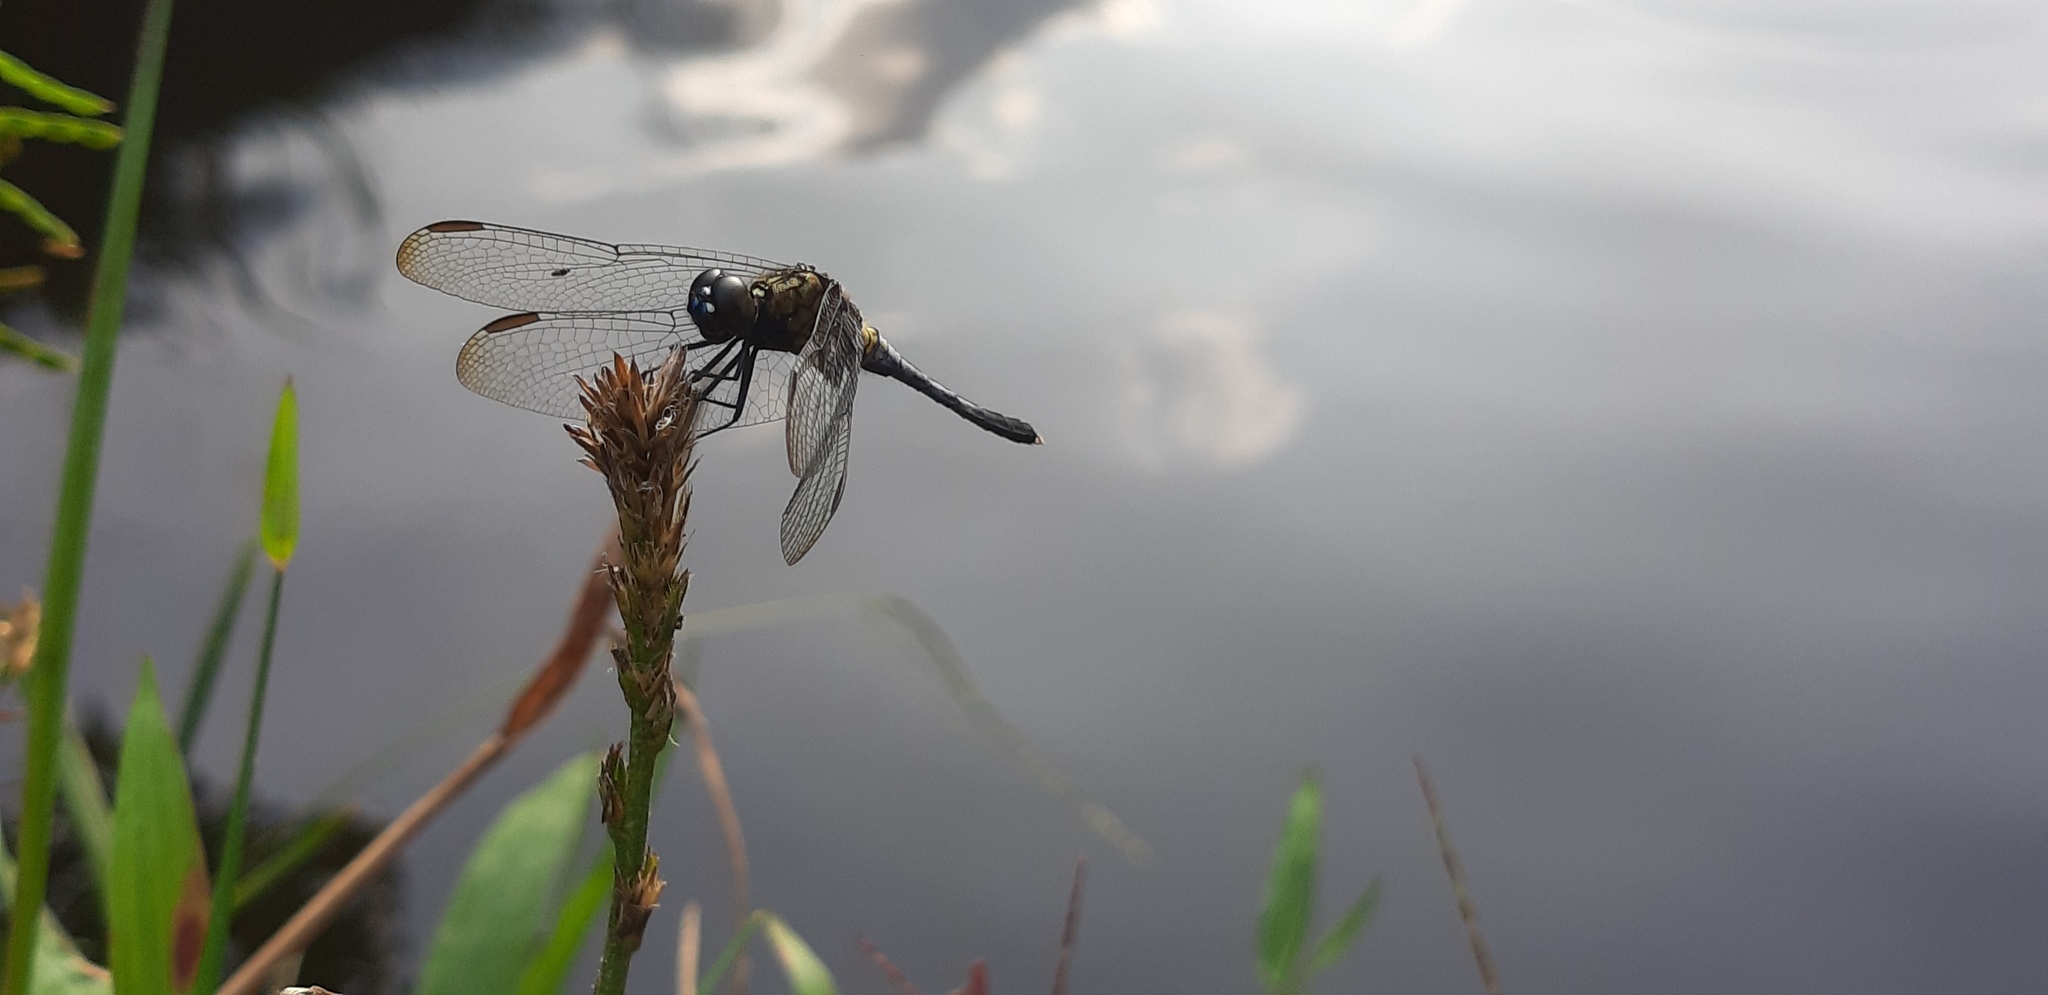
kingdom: Animalia
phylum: Arthropoda
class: Insecta
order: Odonata
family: Libellulidae
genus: Erythrodiplax
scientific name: Erythrodiplax basalis
